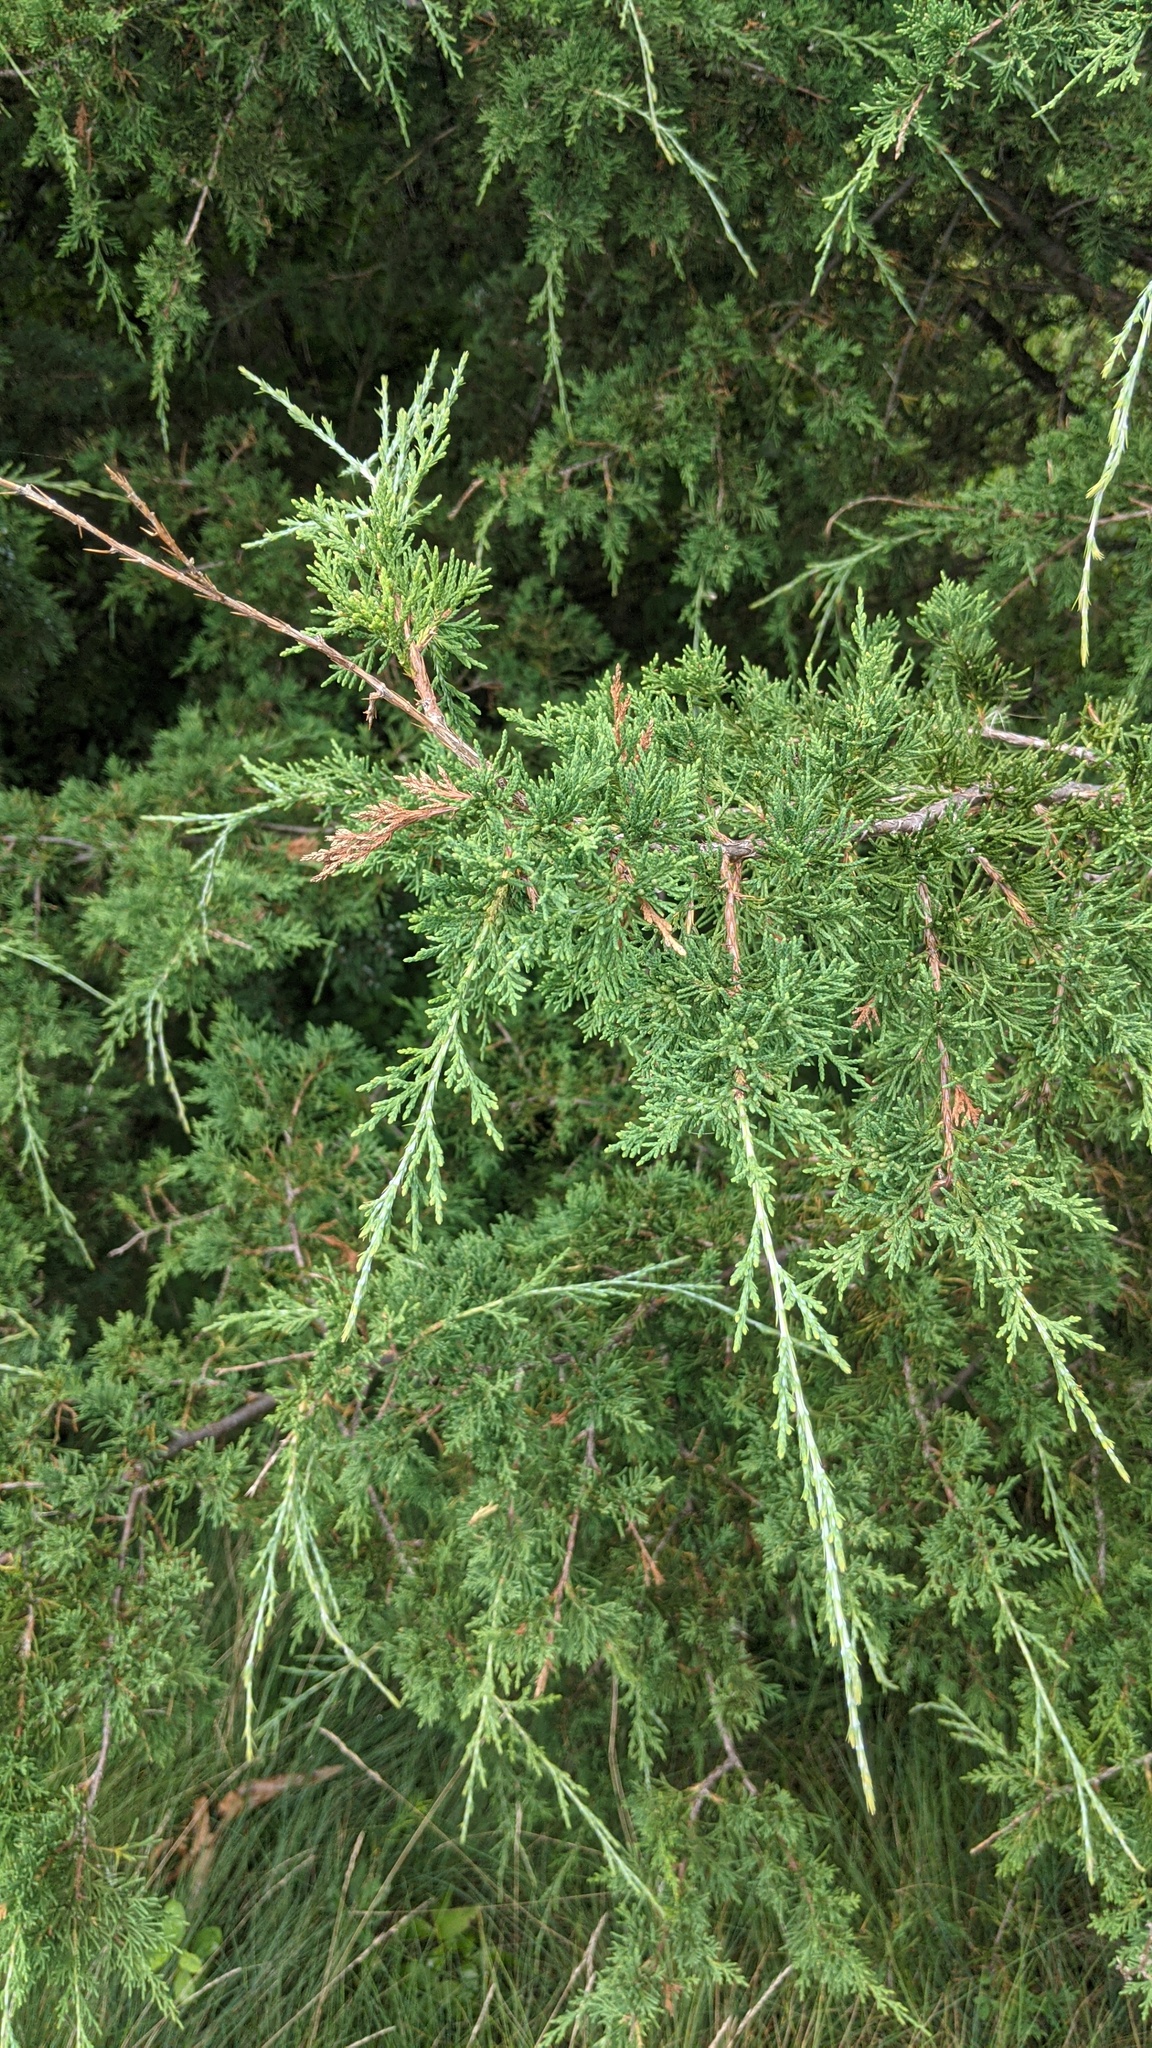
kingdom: Plantae
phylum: Tracheophyta
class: Pinopsida
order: Pinales
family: Cupressaceae
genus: Juniperus
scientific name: Juniperus virginiana
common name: Red juniper
